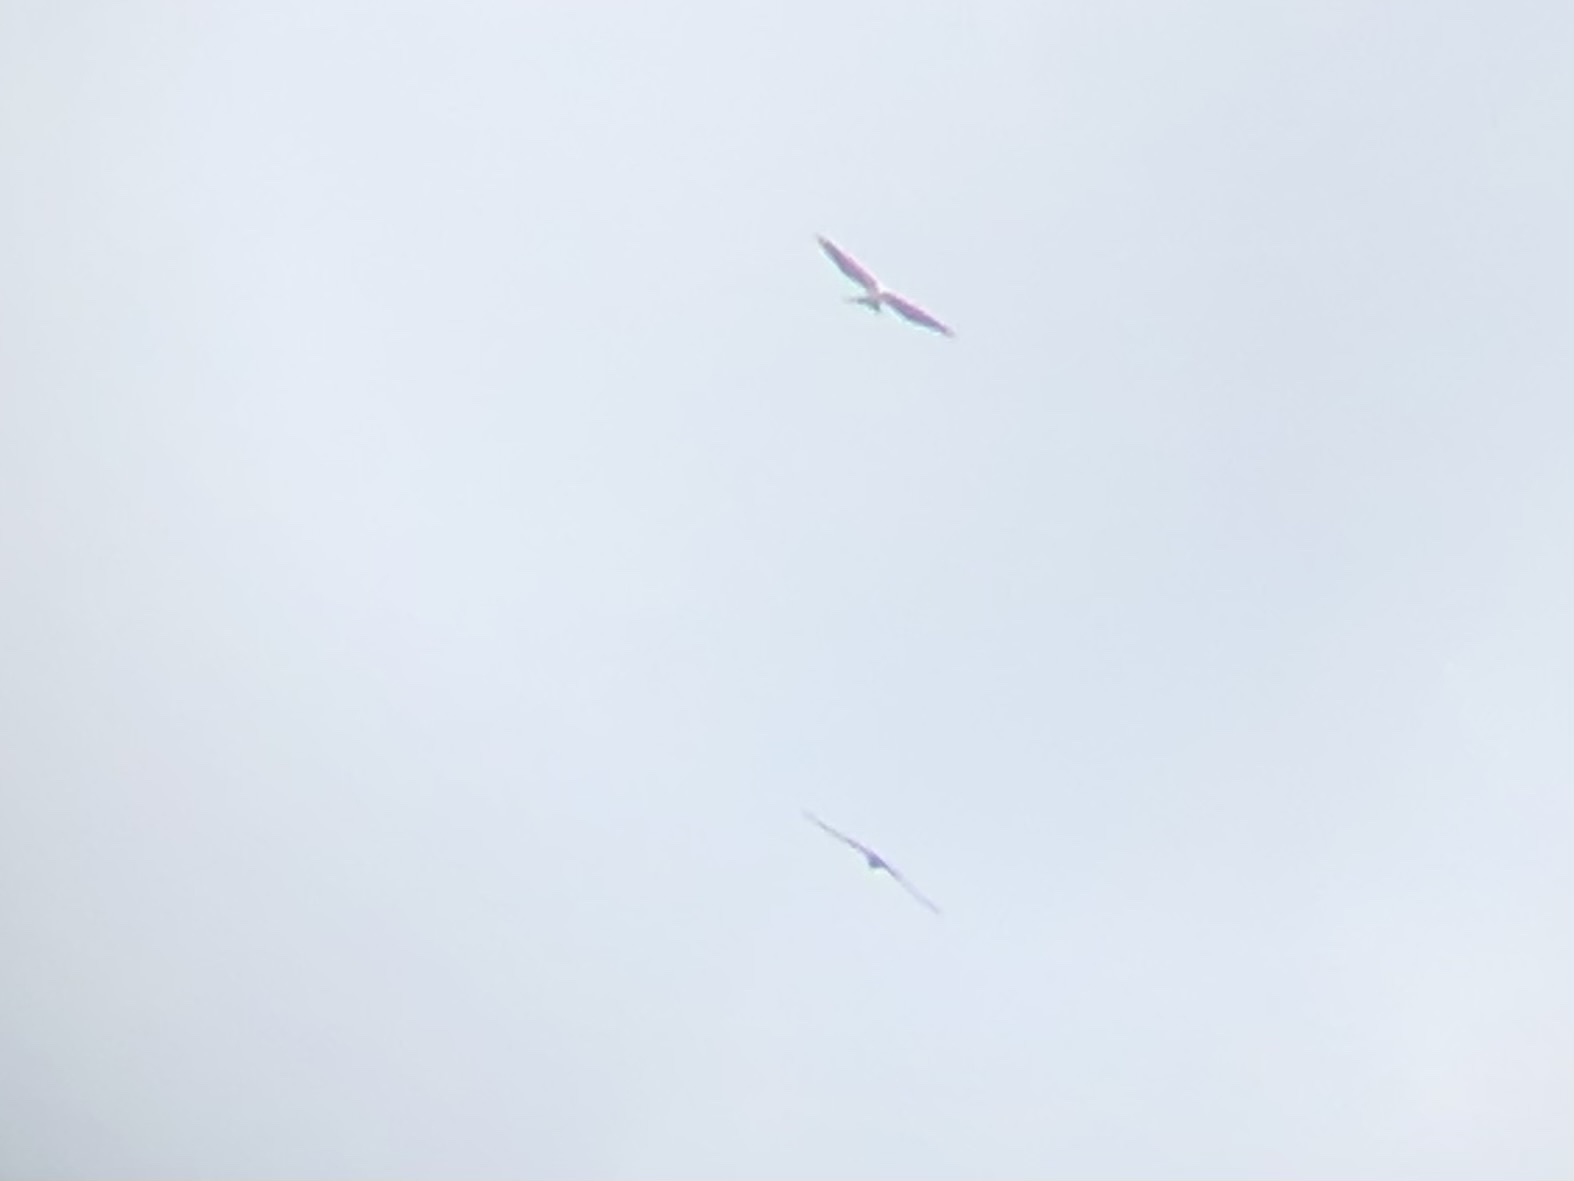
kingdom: Animalia
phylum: Chordata
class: Aves
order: Accipitriformes
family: Accipitridae
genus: Elanoides
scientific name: Elanoides forficatus
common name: Swallow-tailed kite
